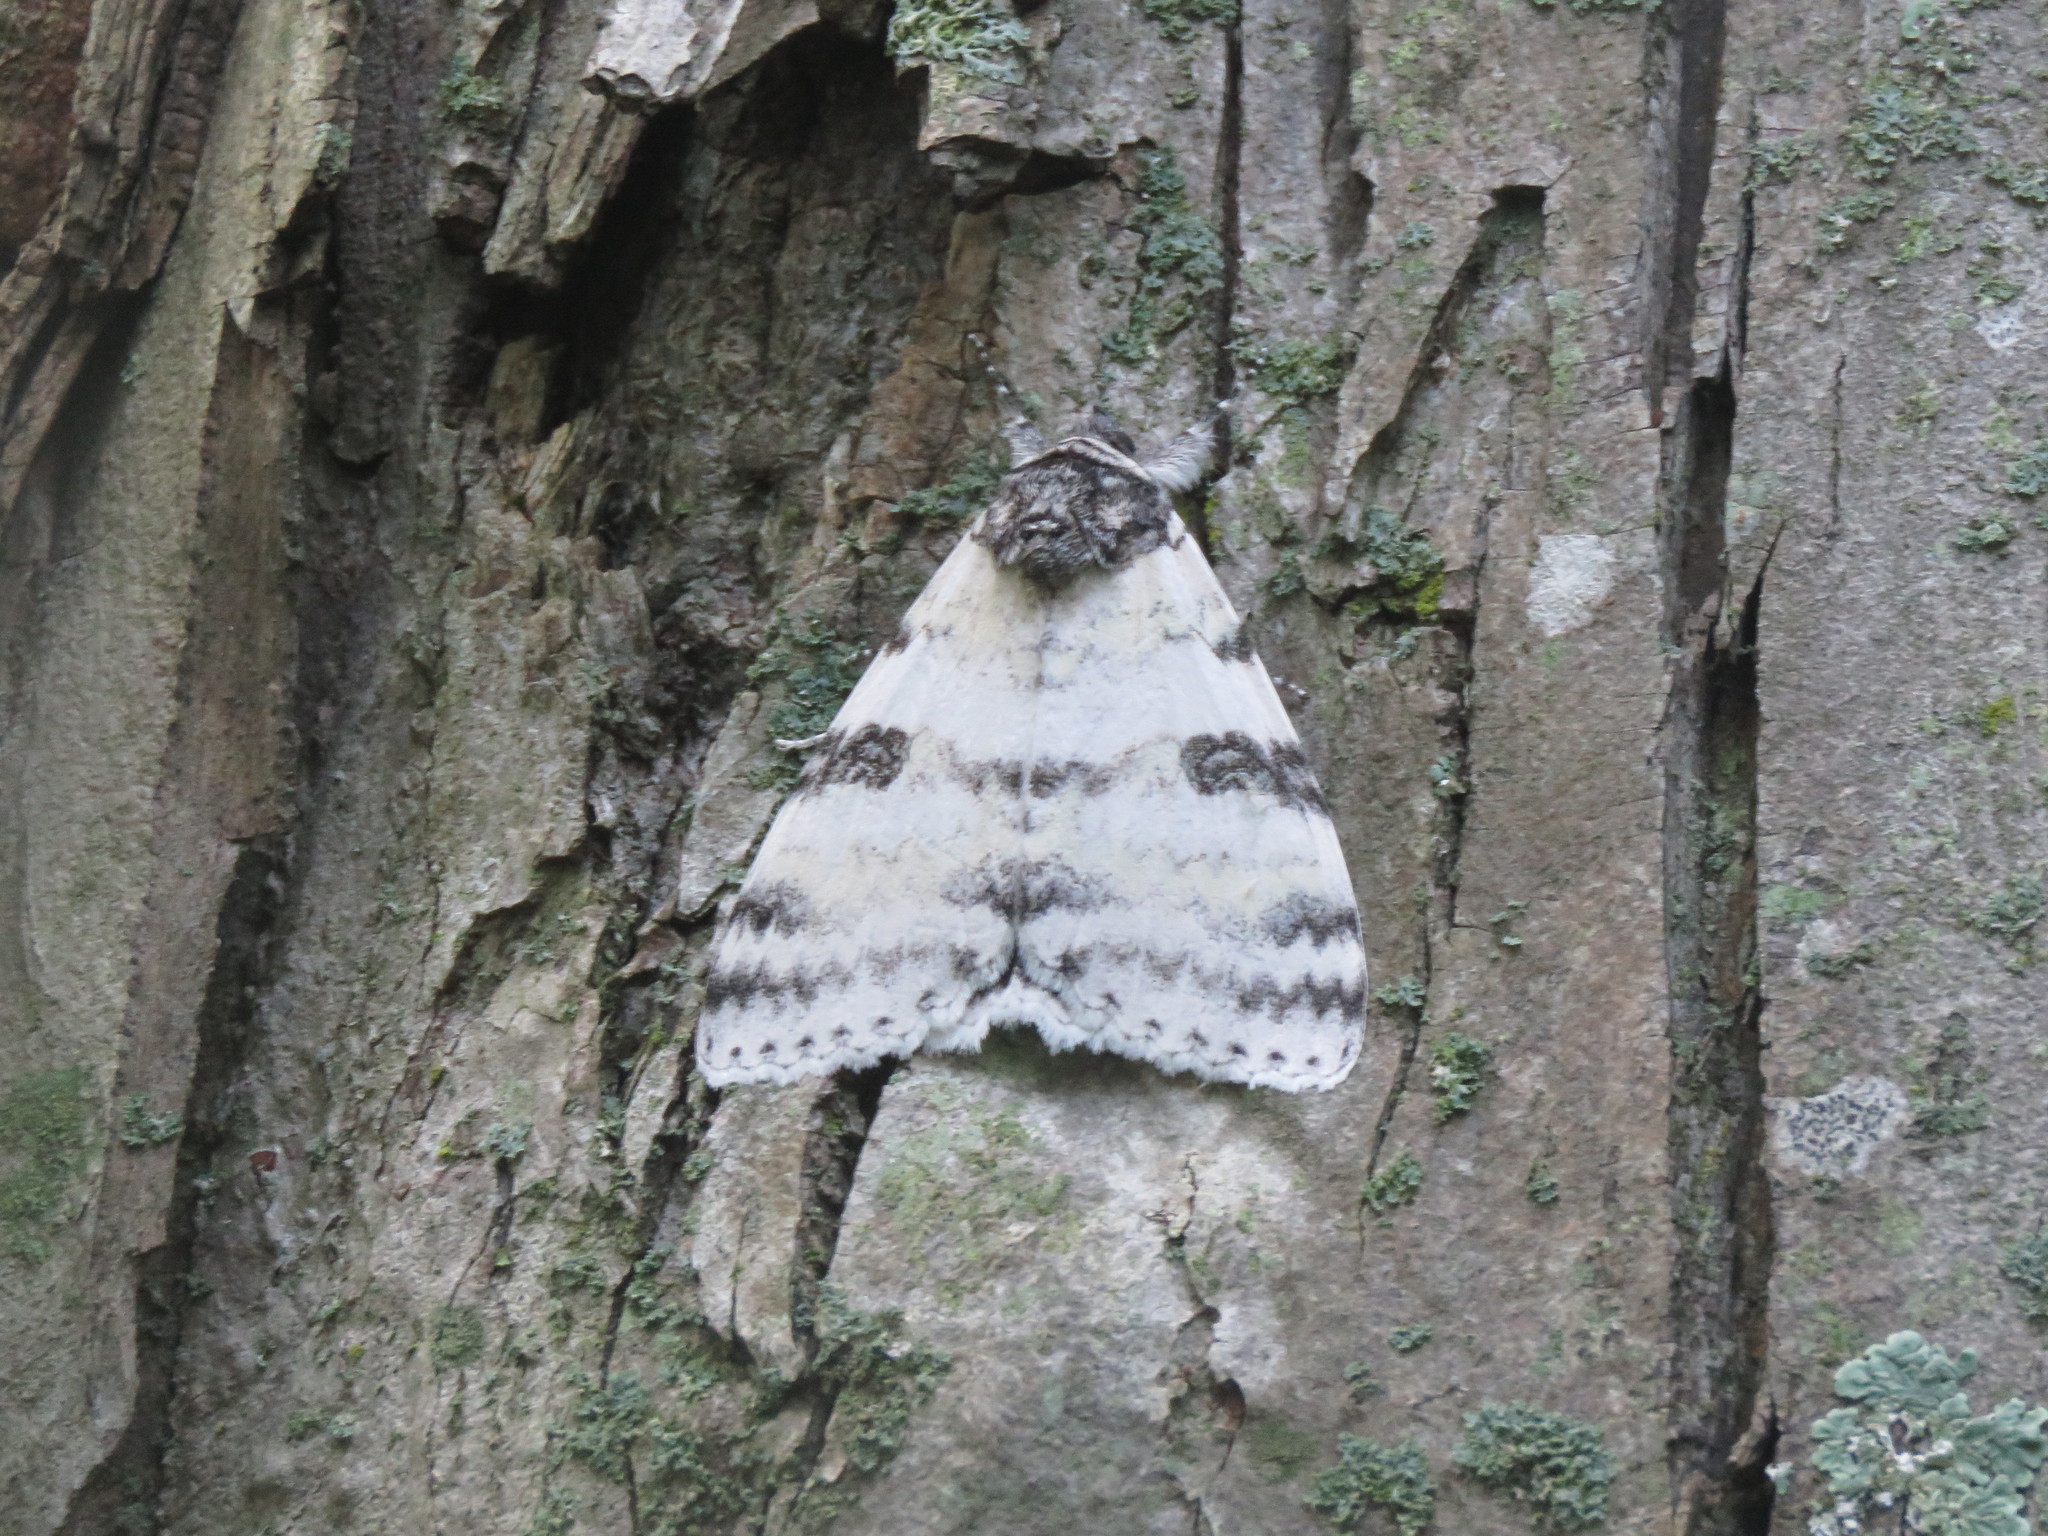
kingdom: Animalia
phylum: Arthropoda
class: Insecta
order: Lepidoptera
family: Erebidae
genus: Catocala
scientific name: Catocala relicta
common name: White underwing
